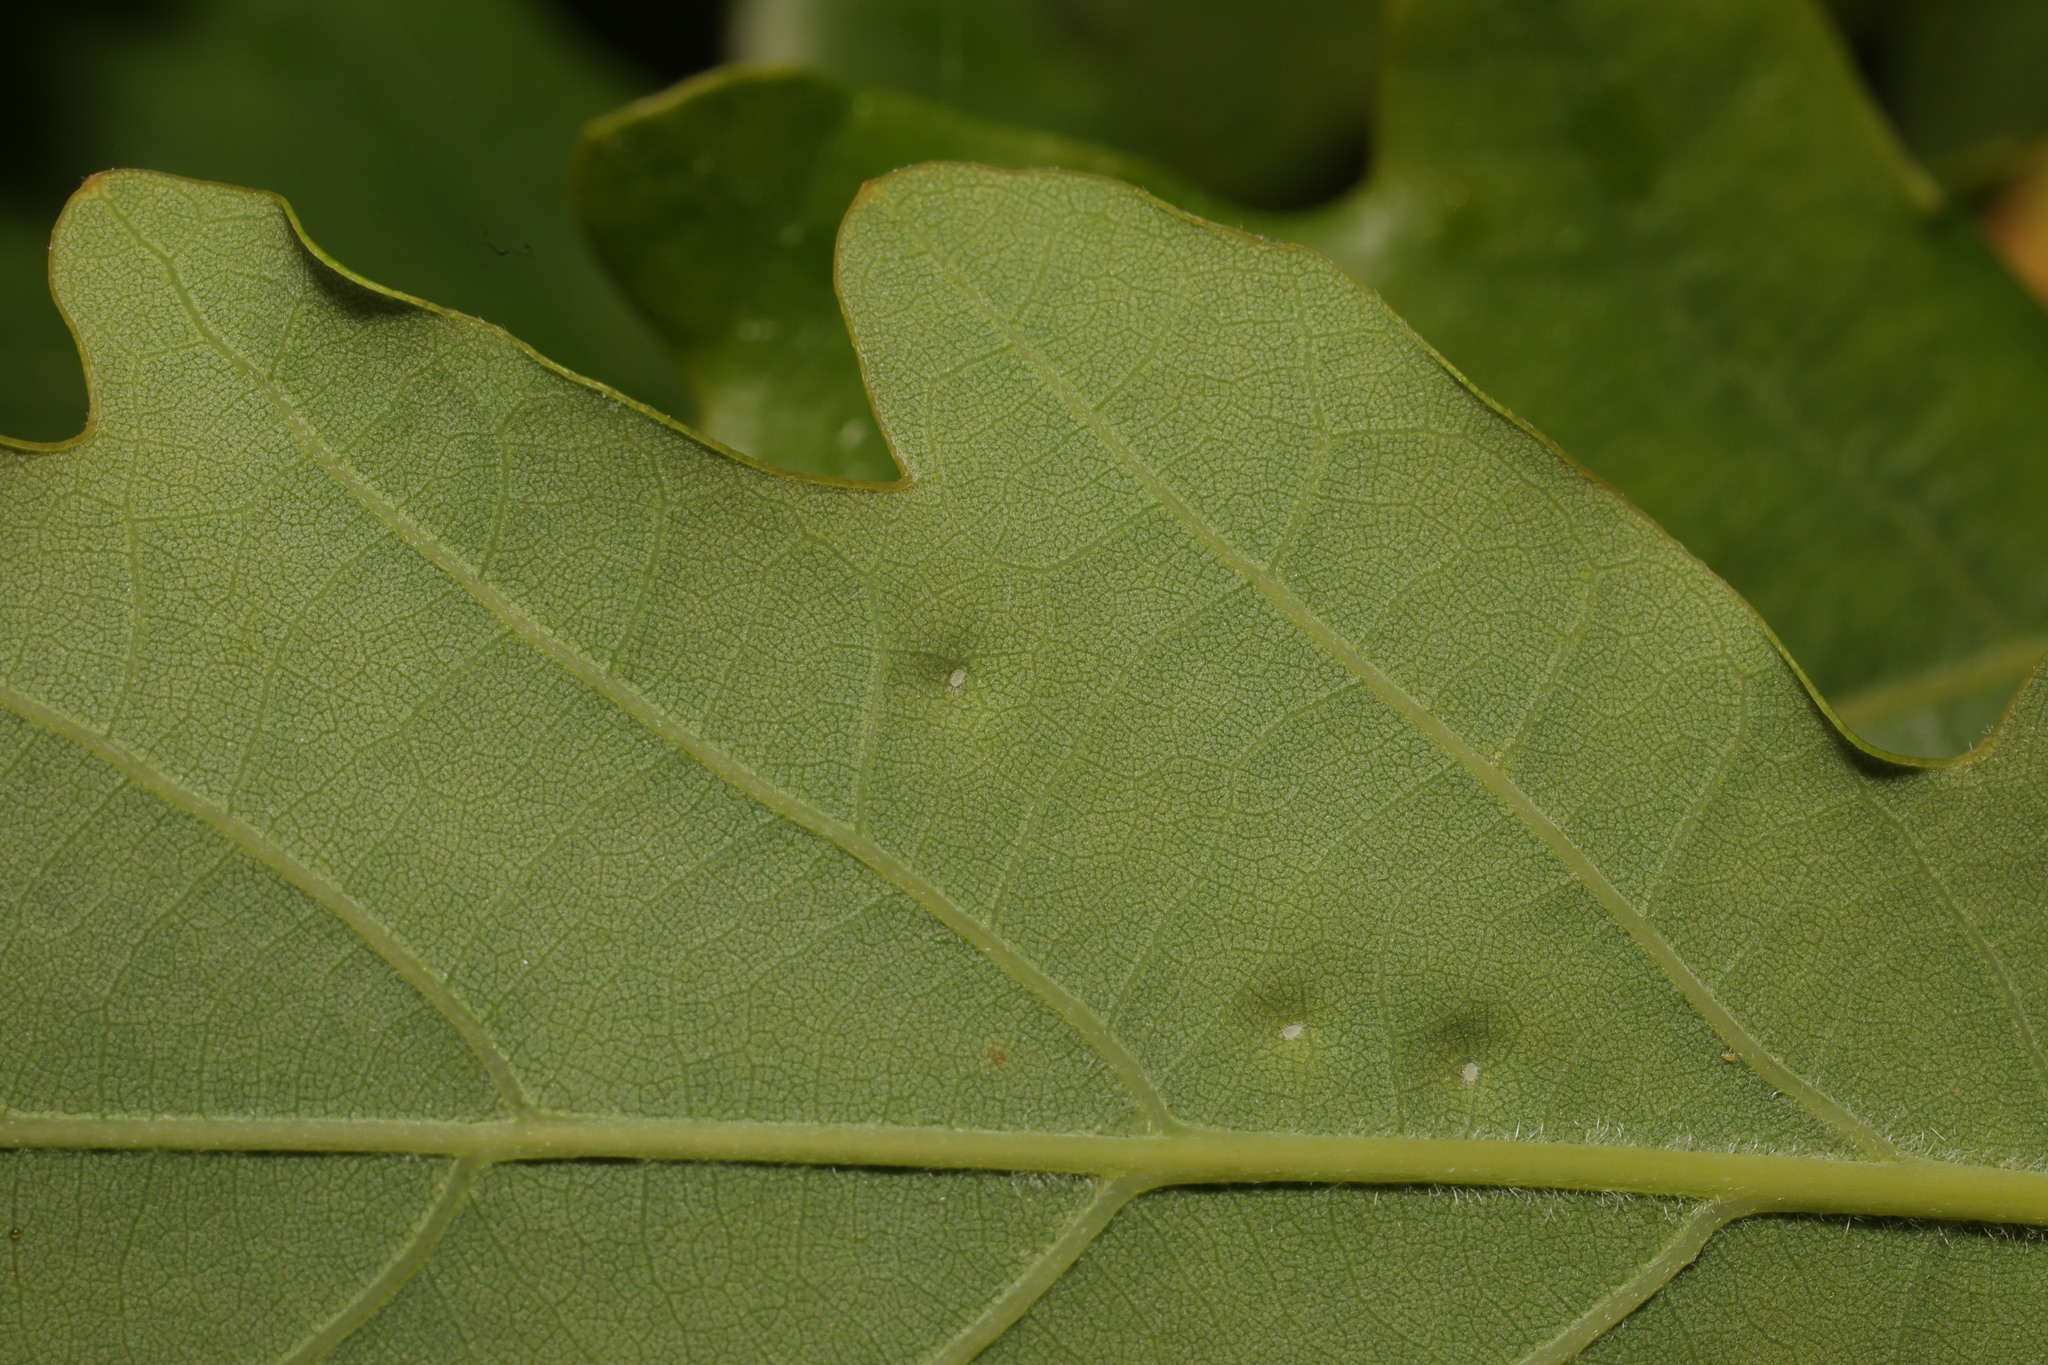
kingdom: Animalia
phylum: Arthropoda
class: Insecta
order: Hemiptera
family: Triozidae
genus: Trioza
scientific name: Trioza remota
